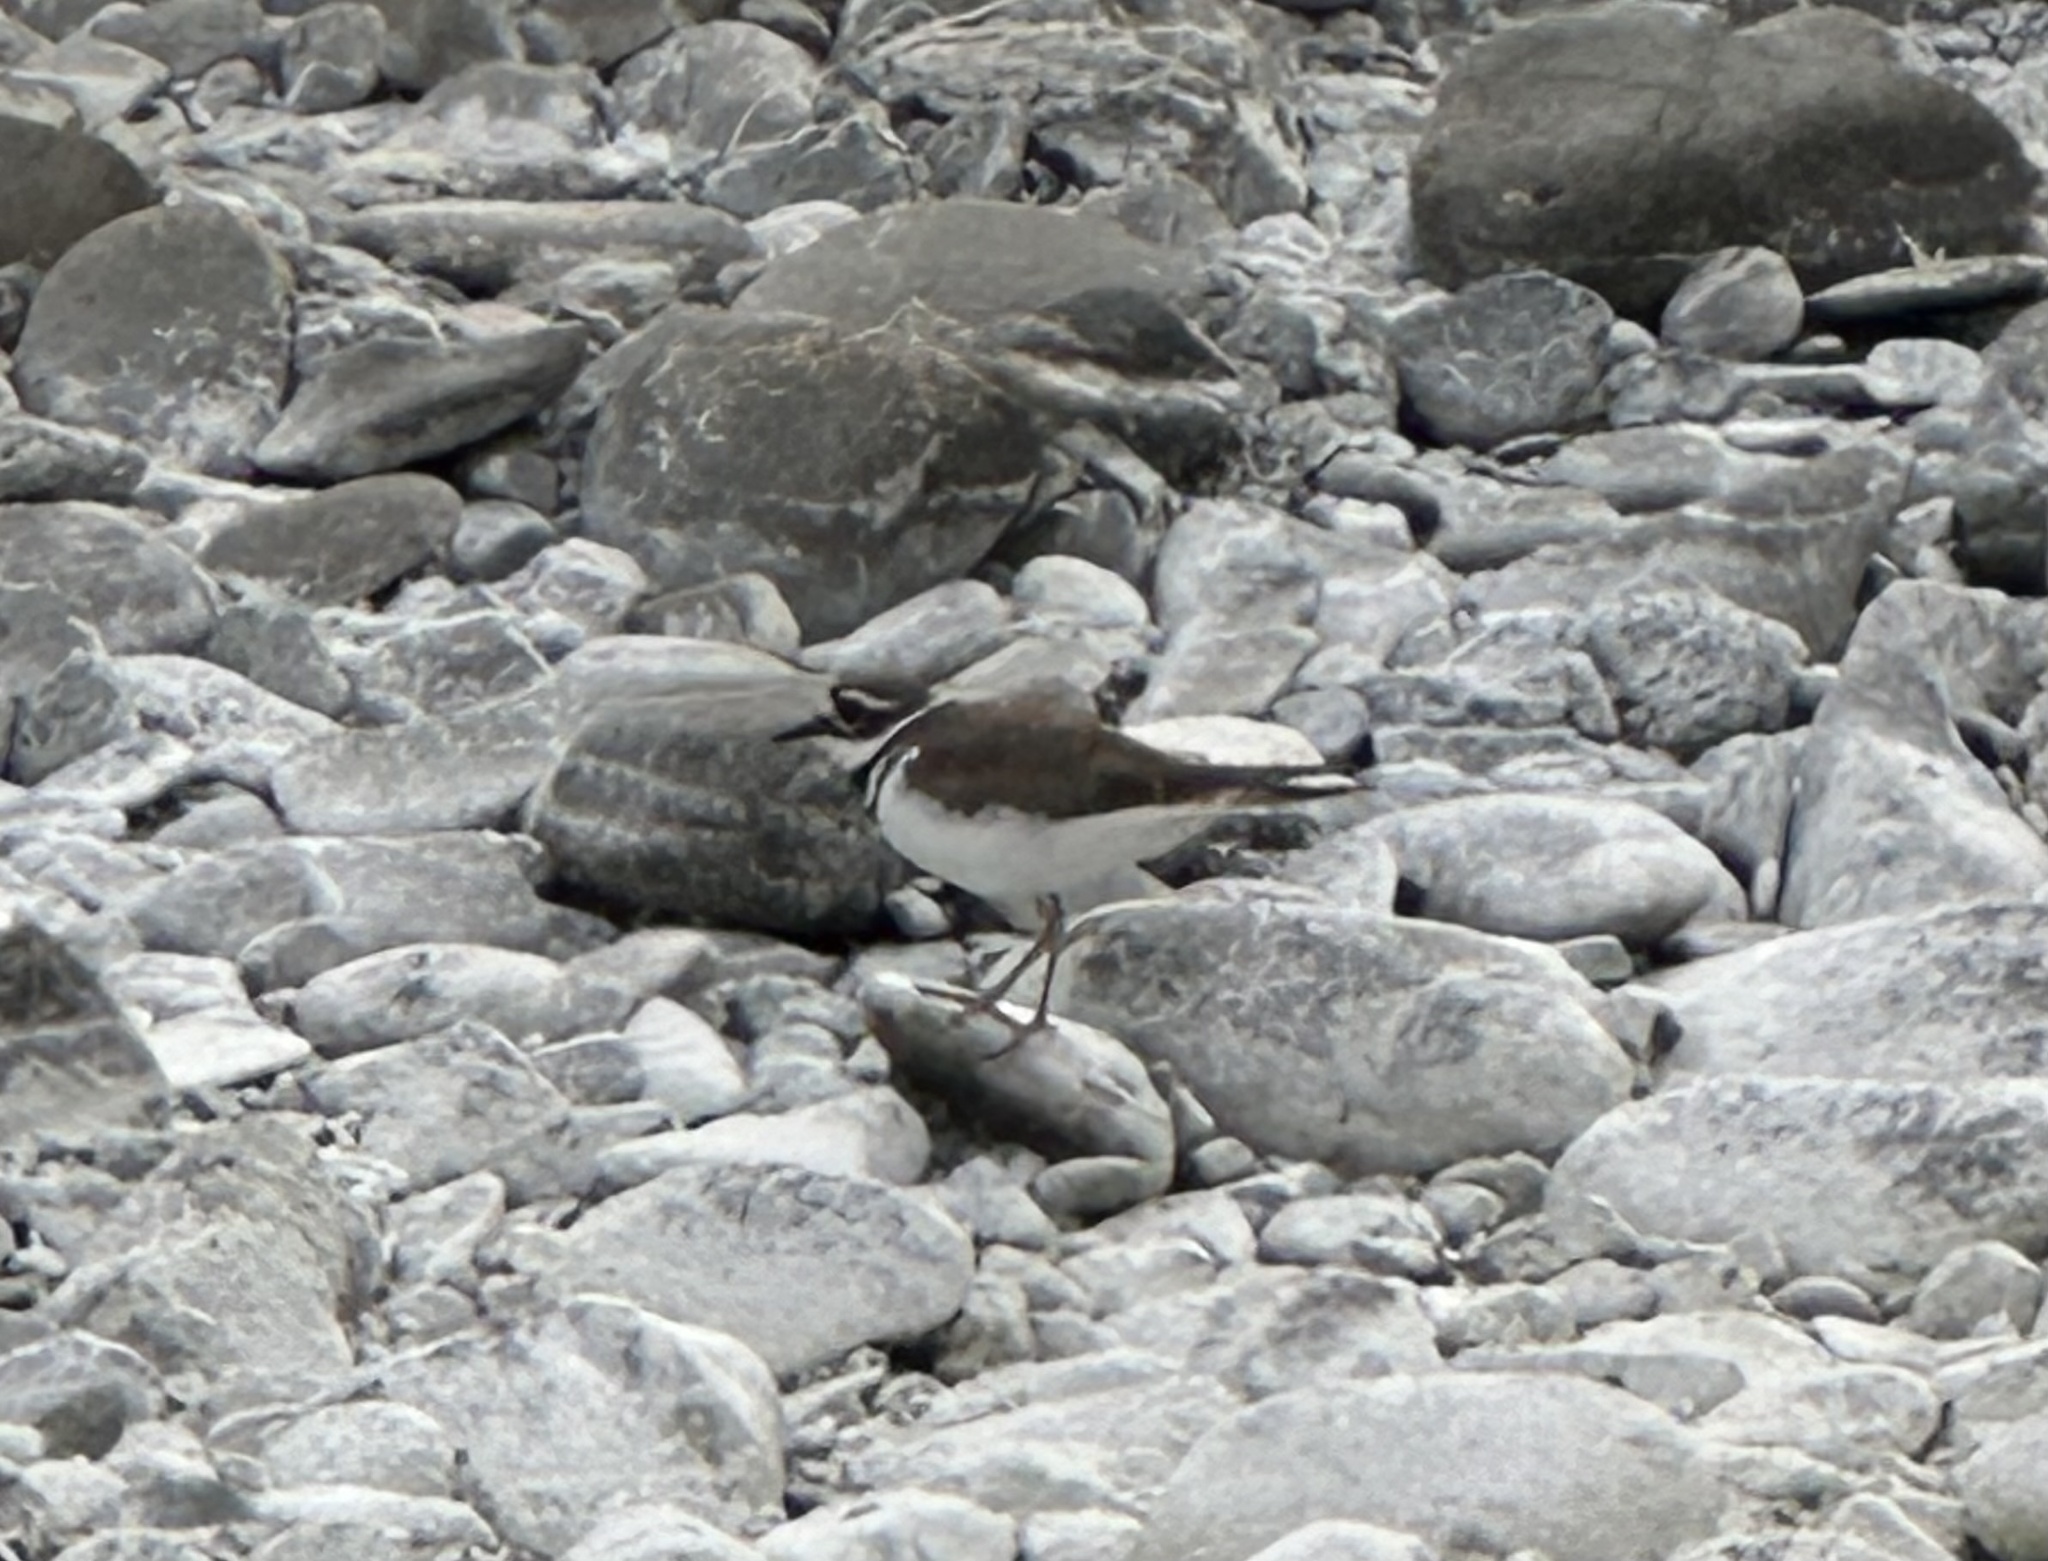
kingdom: Animalia
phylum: Chordata
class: Aves
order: Charadriiformes
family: Charadriidae
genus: Charadrius
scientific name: Charadrius vociferus
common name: Killdeer
